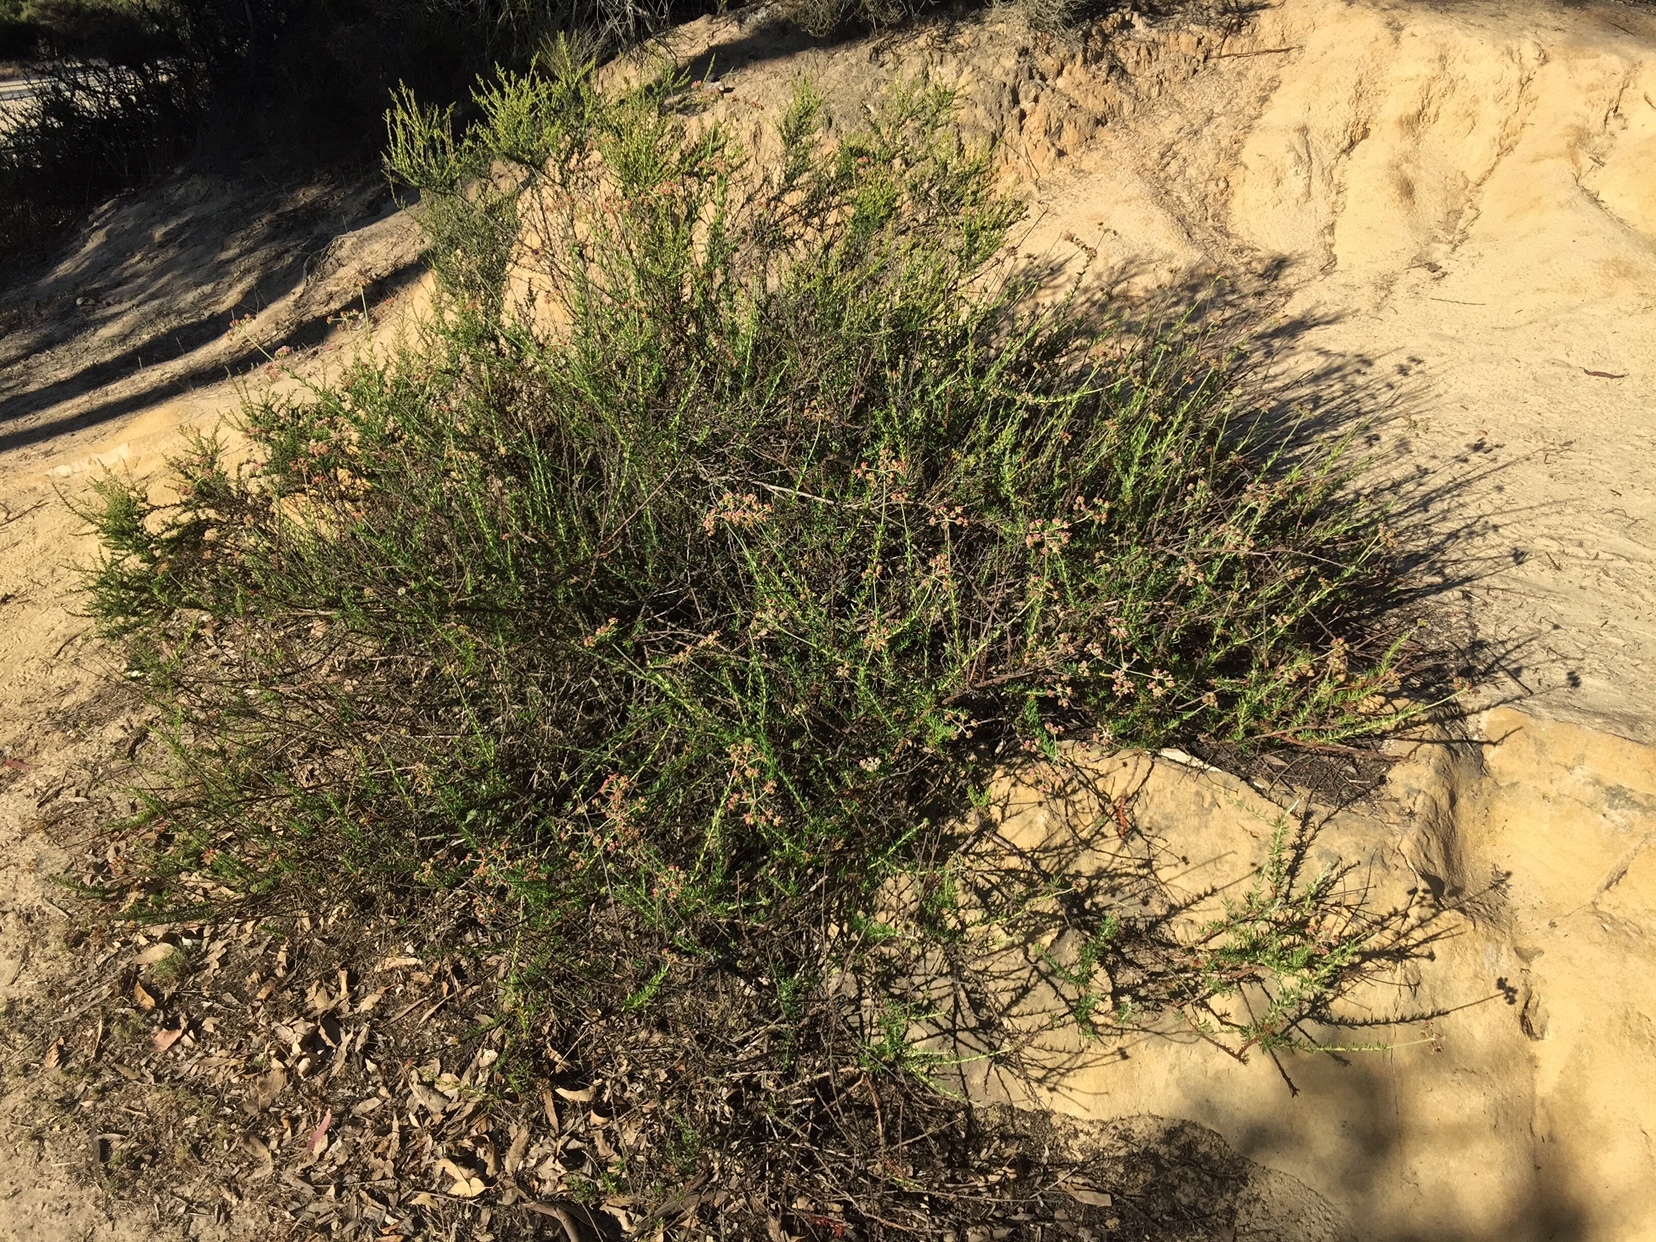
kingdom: Plantae
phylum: Tracheophyta
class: Magnoliopsida
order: Caryophyllales
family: Polygonaceae
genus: Eriogonum
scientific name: Eriogonum fasciculatum
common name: California wild buckwheat
